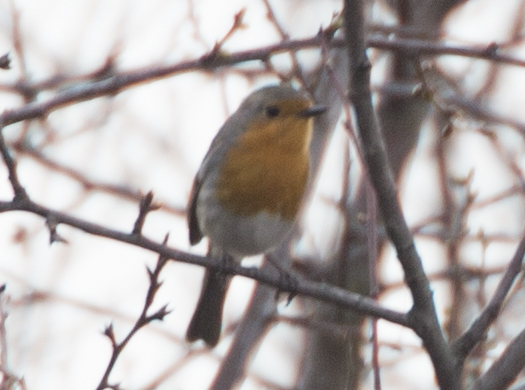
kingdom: Animalia
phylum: Chordata
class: Aves
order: Passeriformes
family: Muscicapidae
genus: Erithacus
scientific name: Erithacus rubecula
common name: European robin
